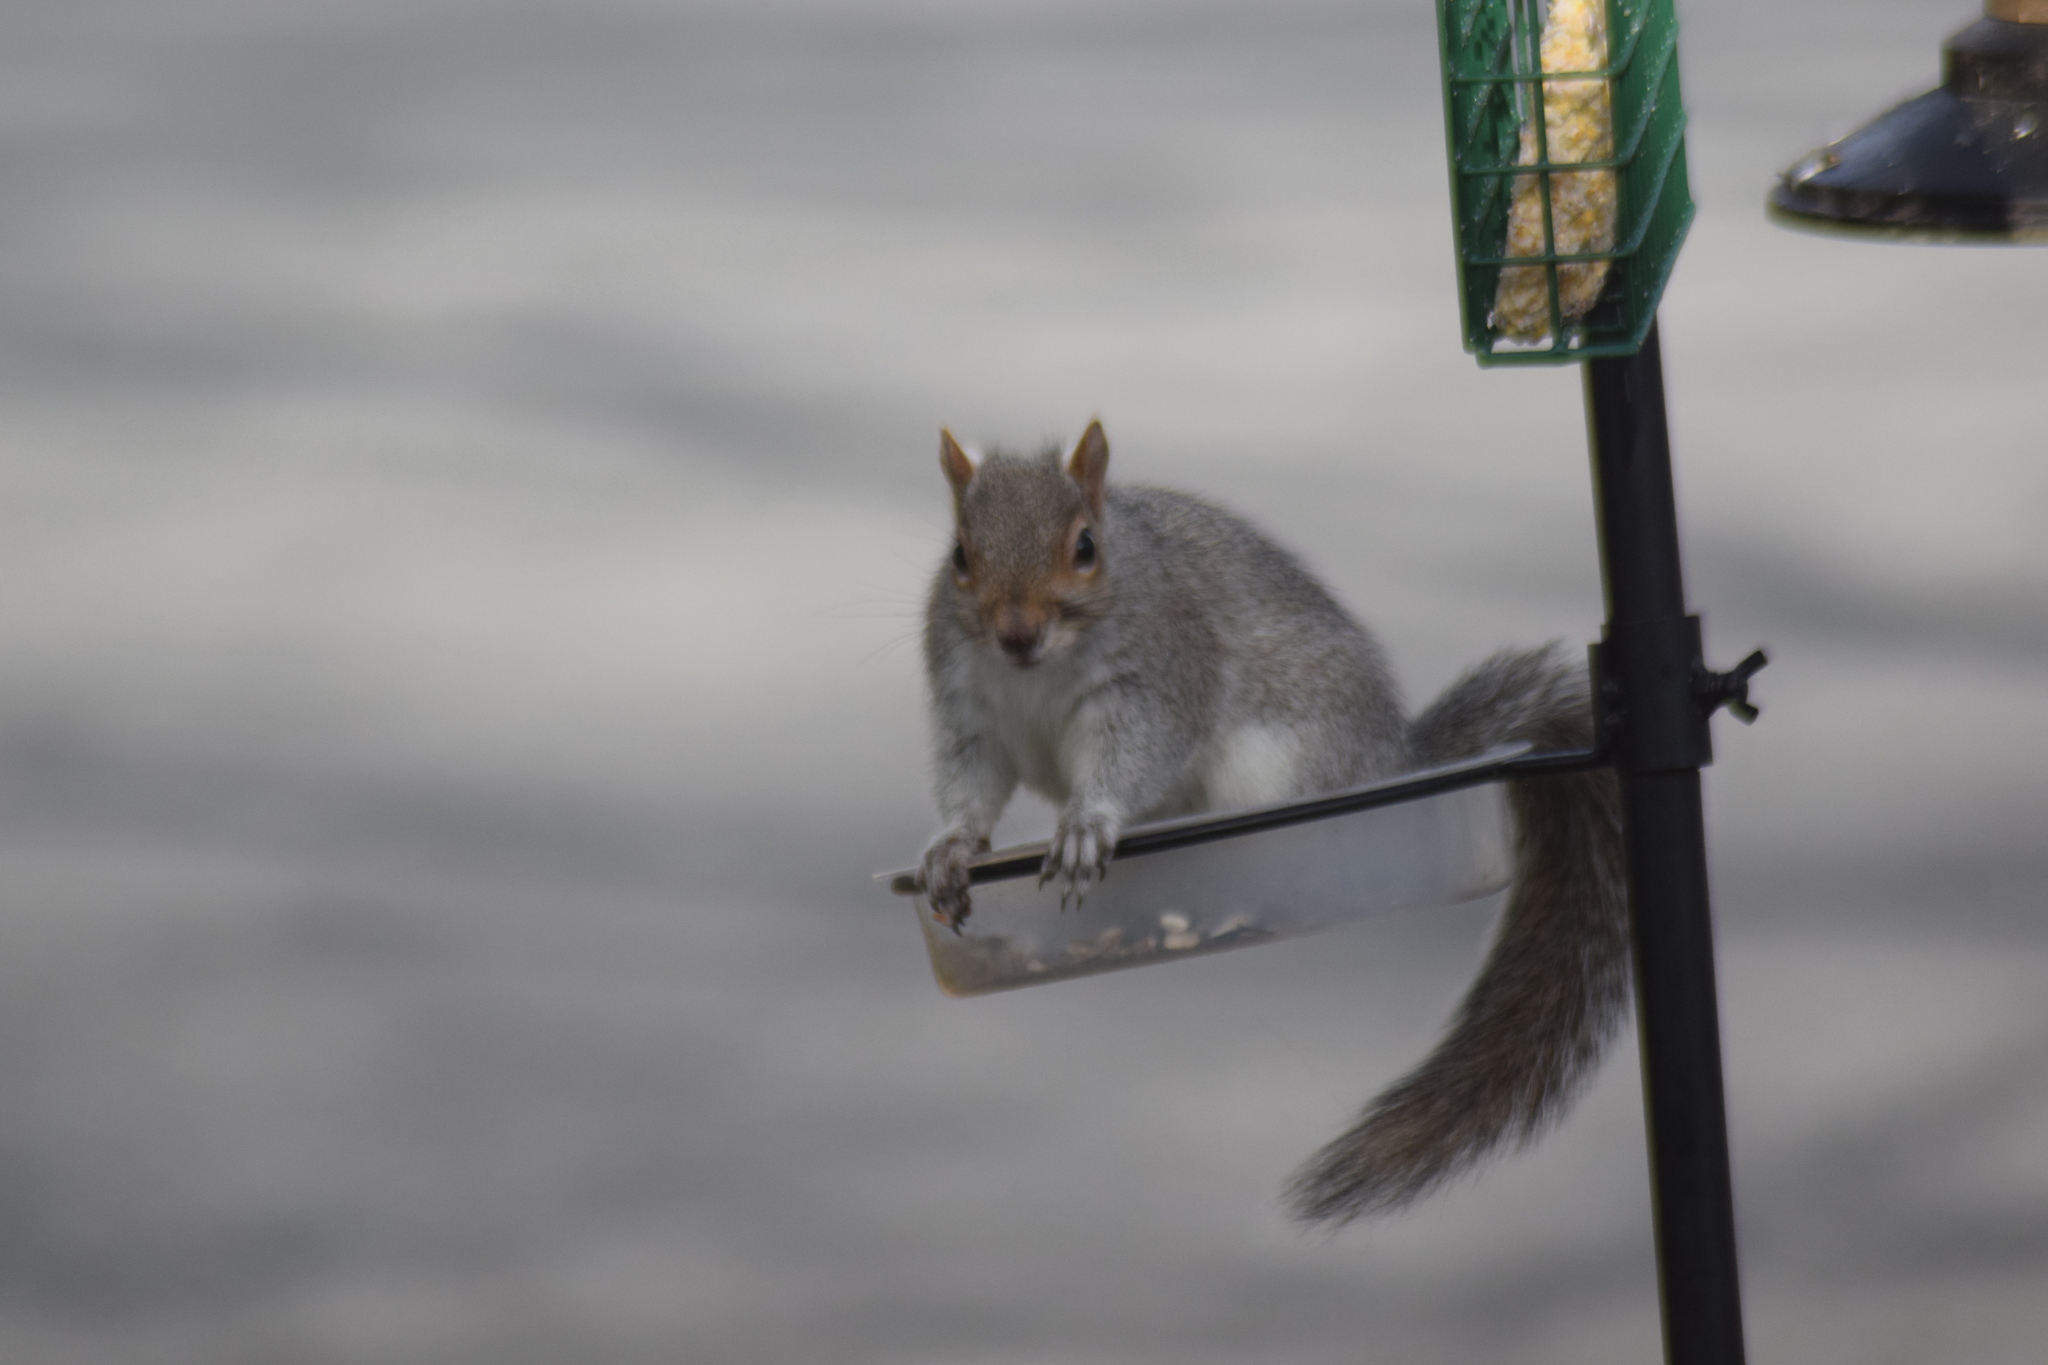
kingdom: Animalia
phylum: Chordata
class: Mammalia
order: Rodentia
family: Sciuridae
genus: Sciurus
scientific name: Sciurus carolinensis
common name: Eastern gray squirrel
